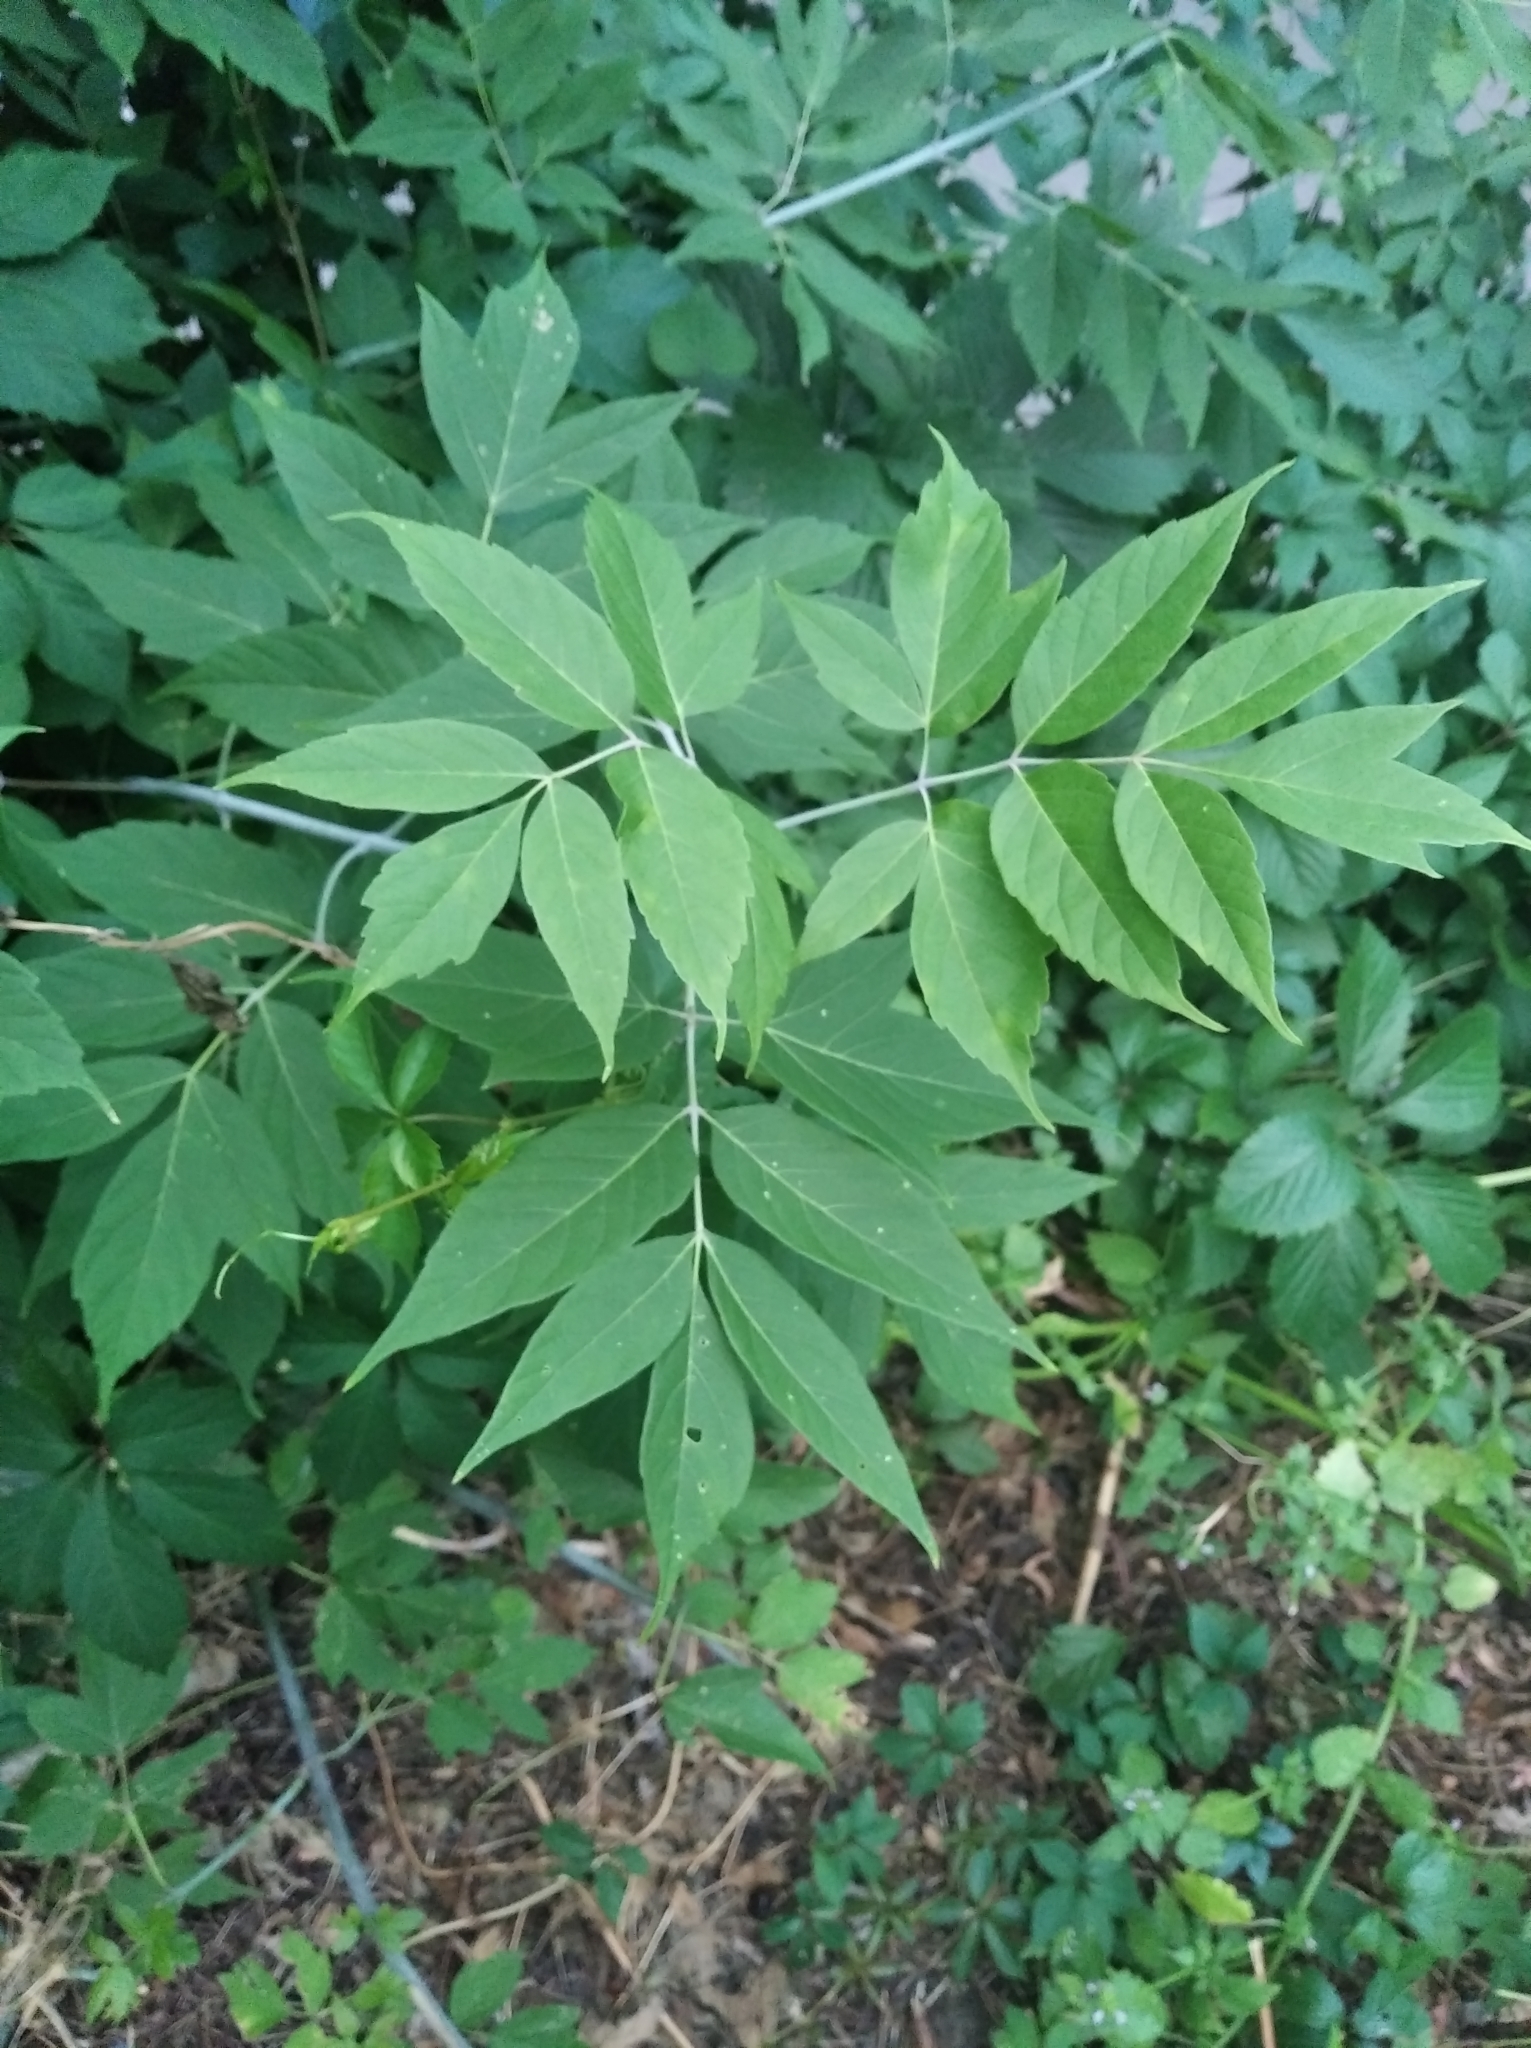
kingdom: Plantae
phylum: Tracheophyta
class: Magnoliopsida
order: Sapindales
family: Sapindaceae
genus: Acer
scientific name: Acer negundo
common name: Ashleaf maple
